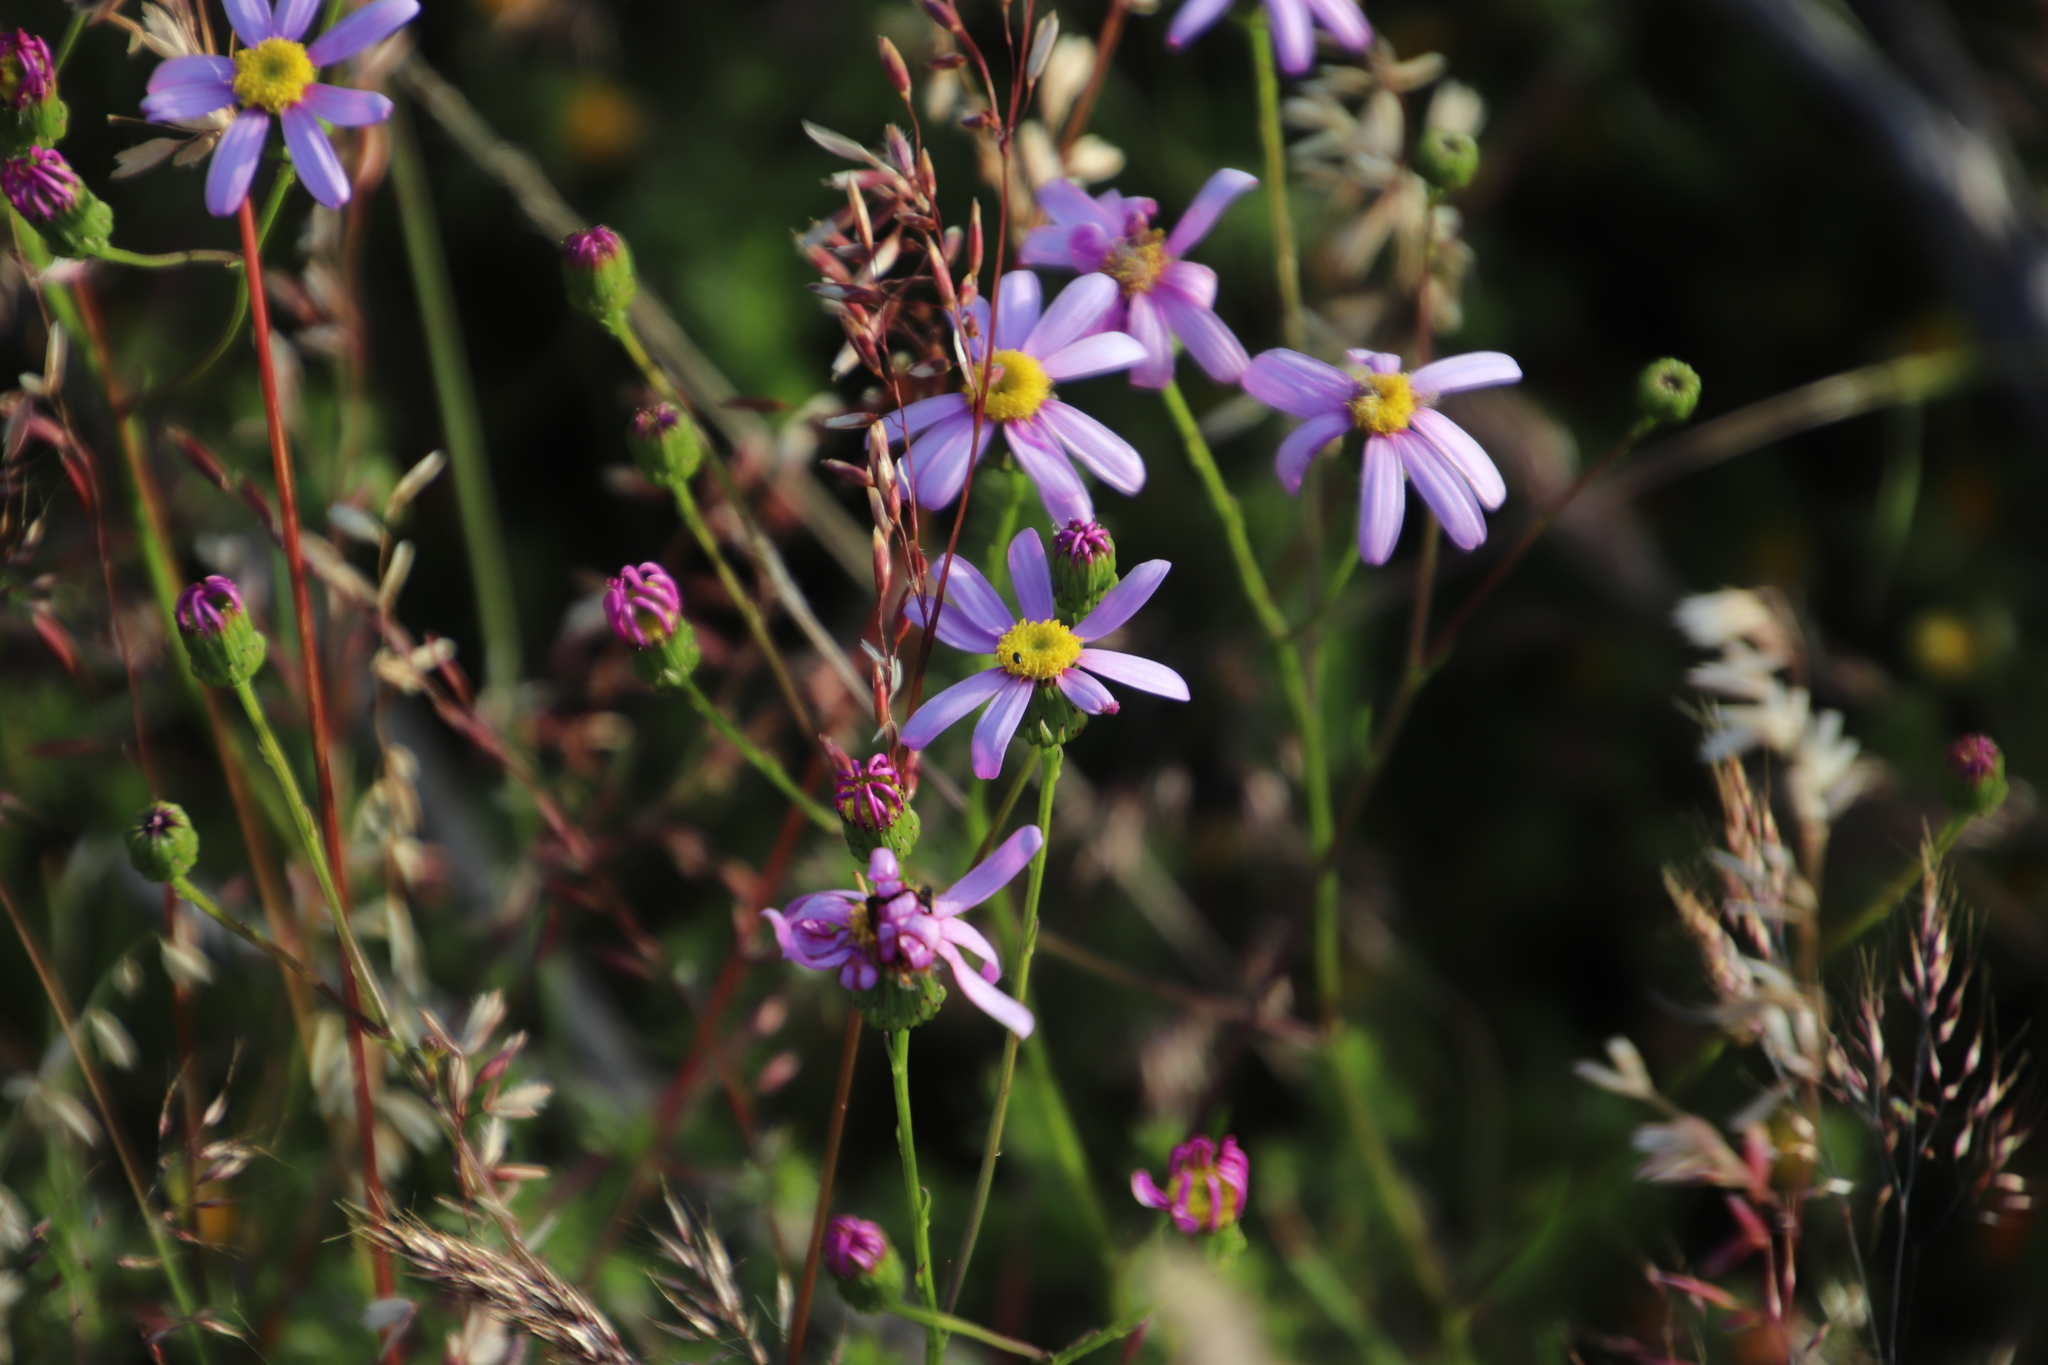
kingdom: Plantae
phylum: Tracheophyta
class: Magnoliopsida
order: Asterales
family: Asteraceae
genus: Senecio
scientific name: Senecio umbellatus
